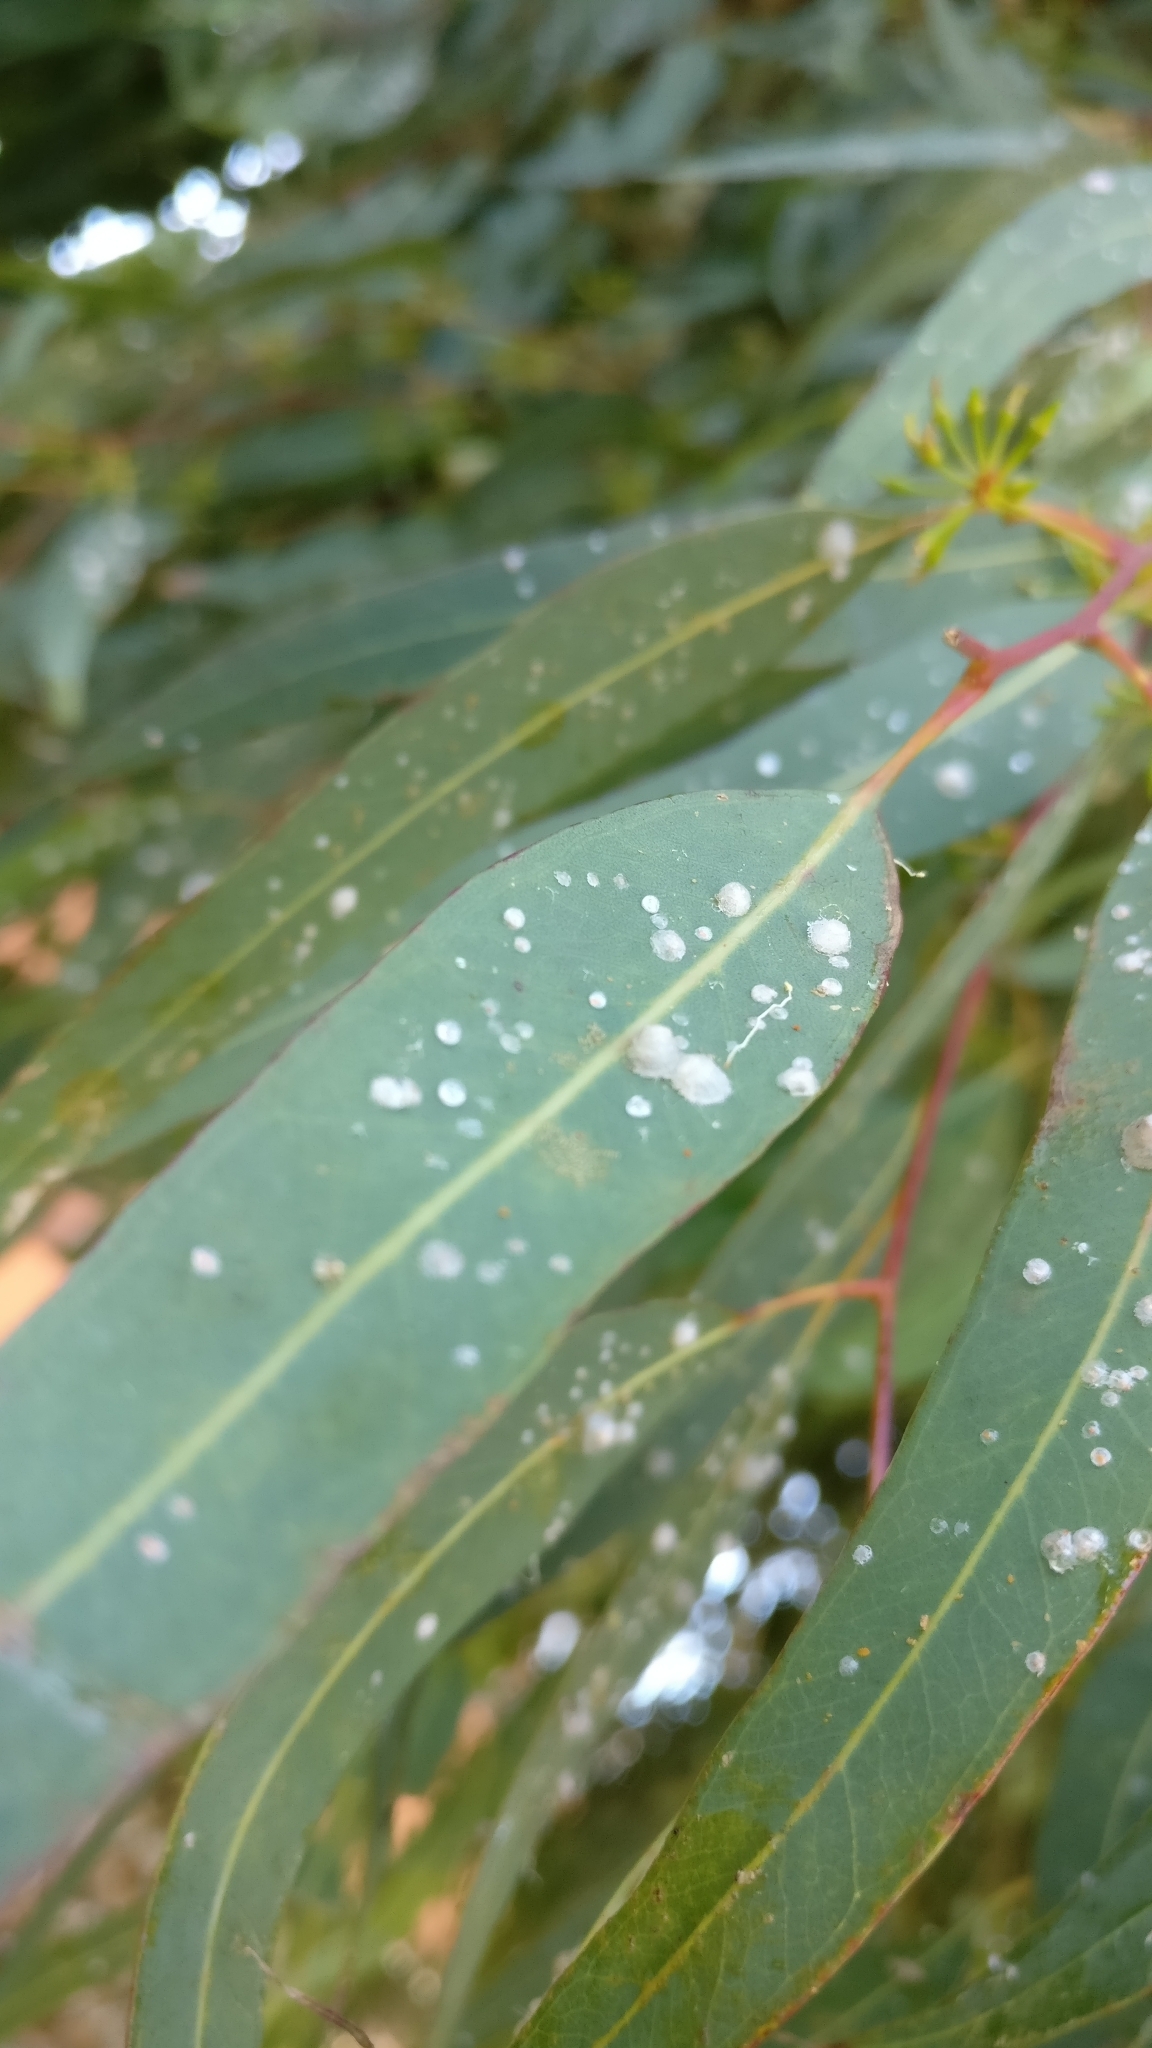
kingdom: Animalia
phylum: Arthropoda
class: Insecta
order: Hemiptera
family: Aphalaridae
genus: Glycaspis
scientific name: Glycaspis brimblecombei
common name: Red gum lerp psyllid
